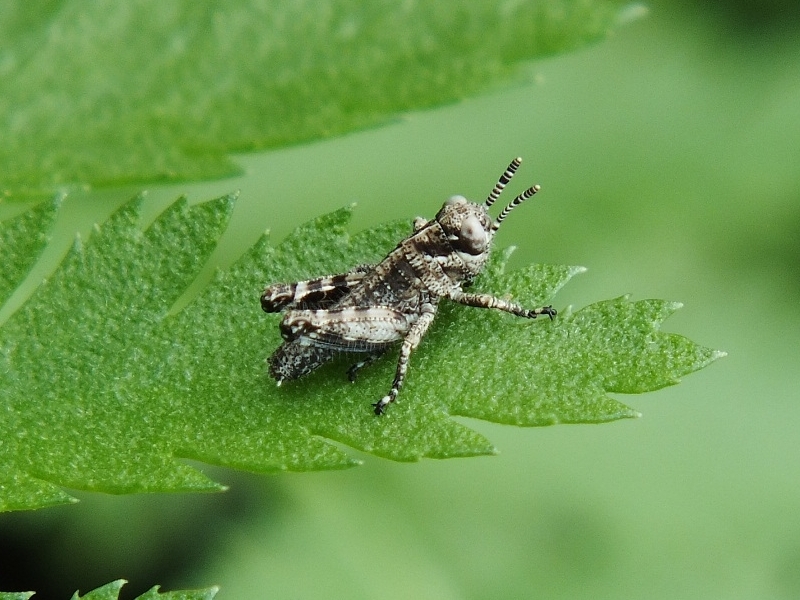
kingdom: Animalia
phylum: Arthropoda
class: Insecta
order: Orthoptera
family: Acrididae
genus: Podisma
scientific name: Podisma pedestris
